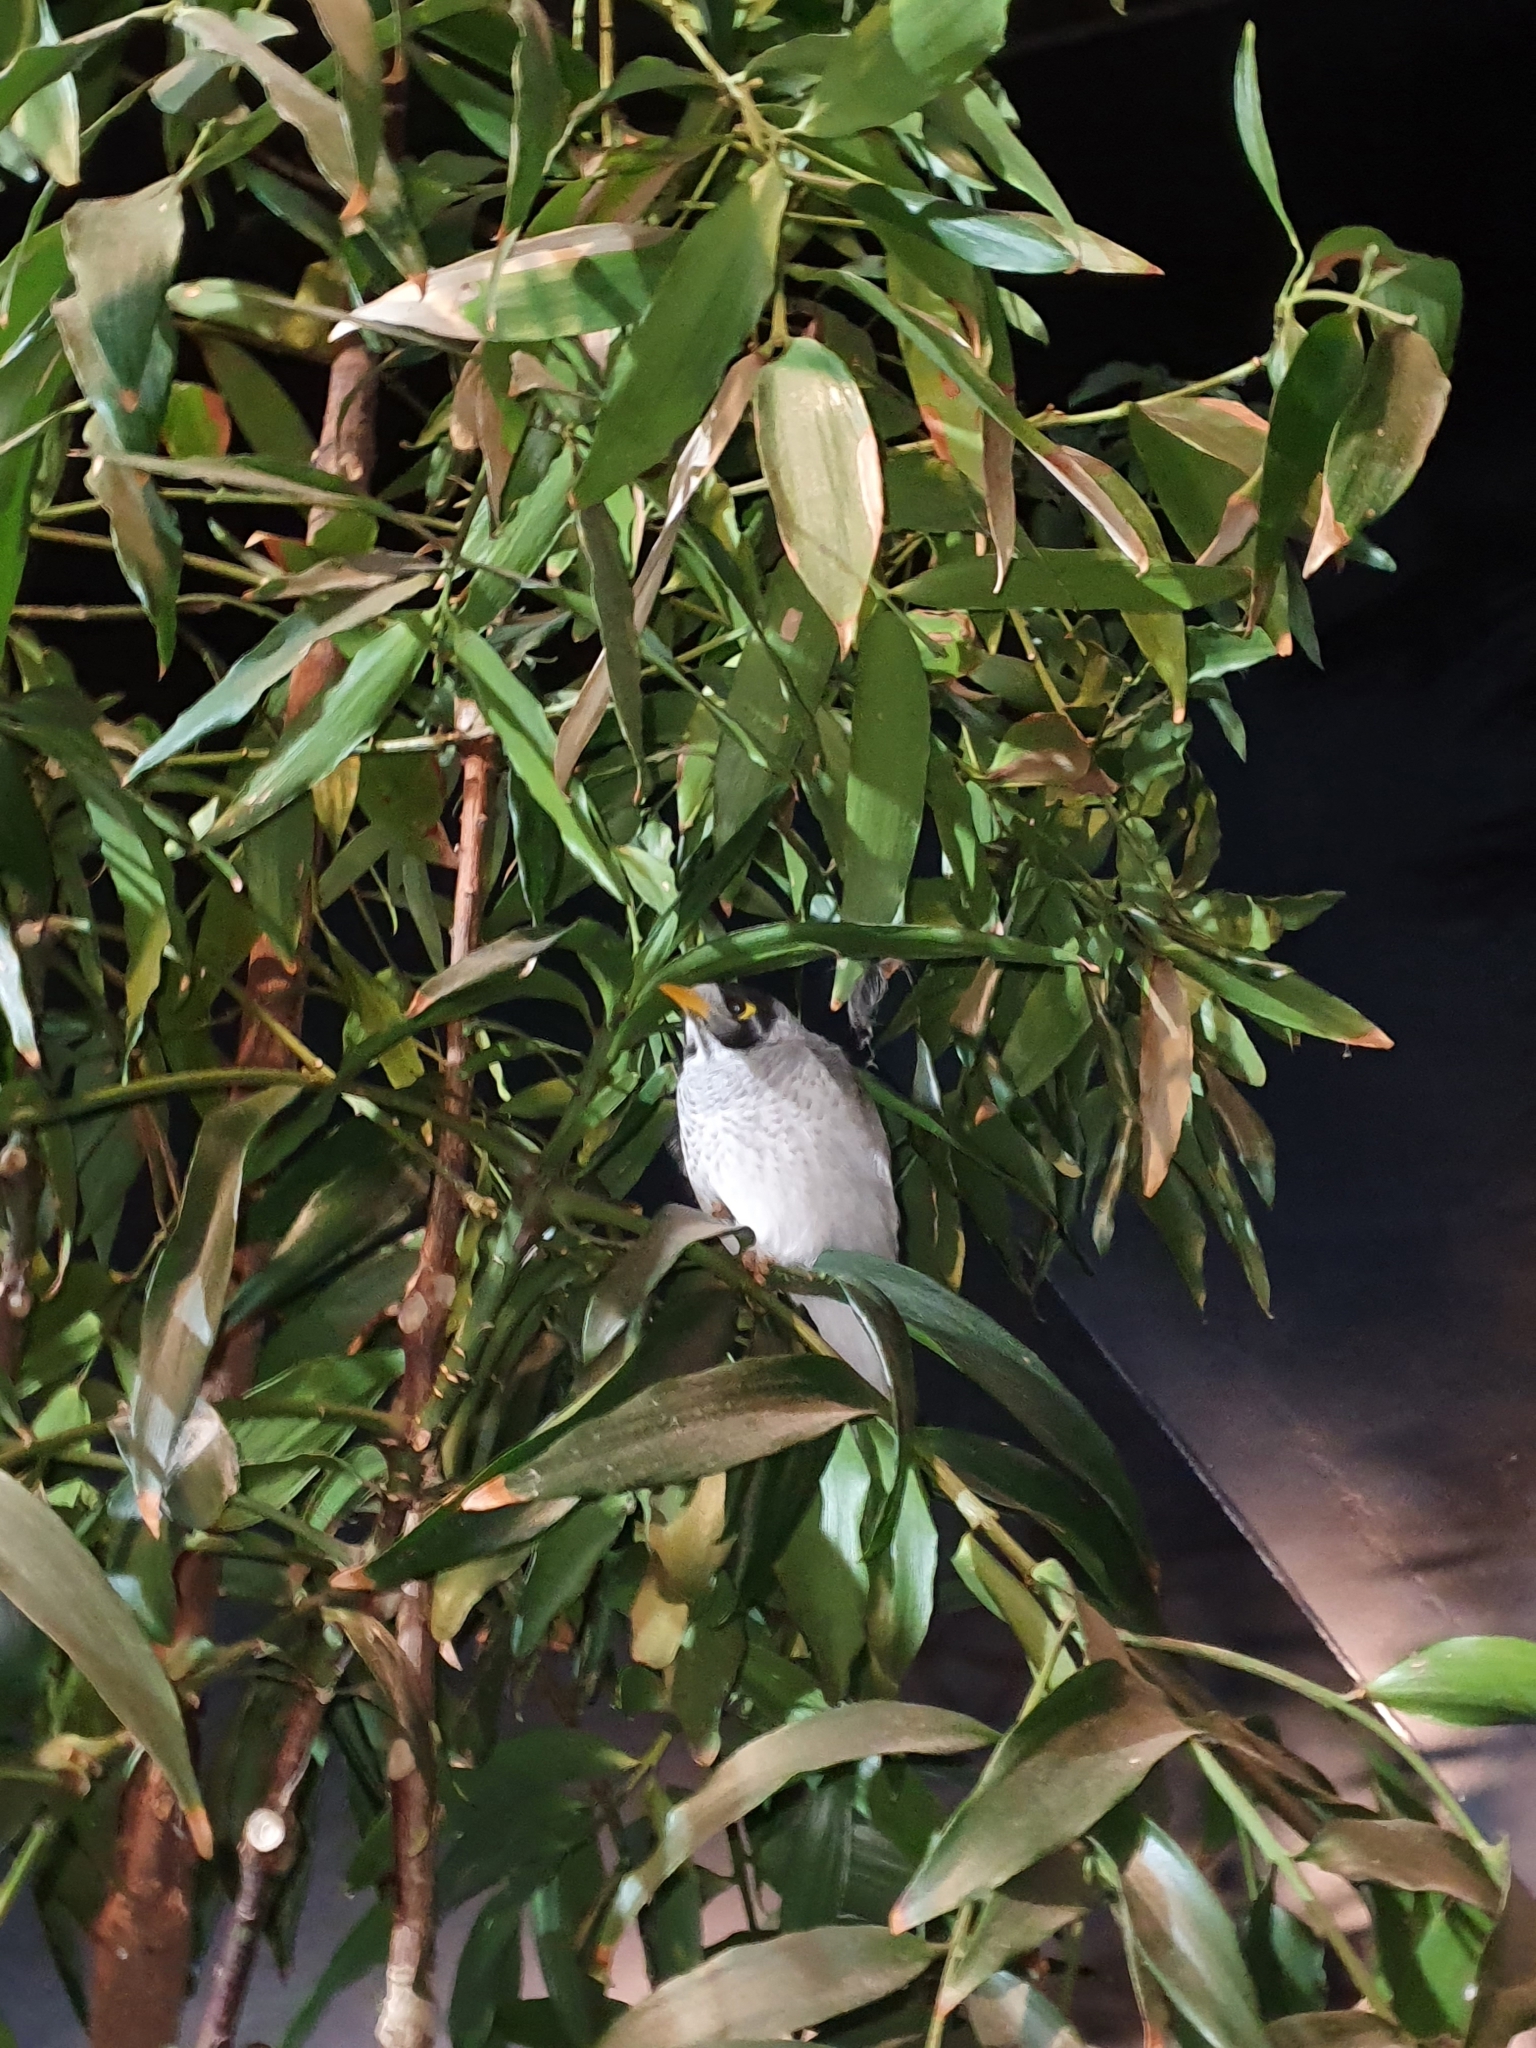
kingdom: Animalia
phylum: Chordata
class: Aves
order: Passeriformes
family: Meliphagidae
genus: Manorina
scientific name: Manorina melanocephala
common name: Noisy miner
